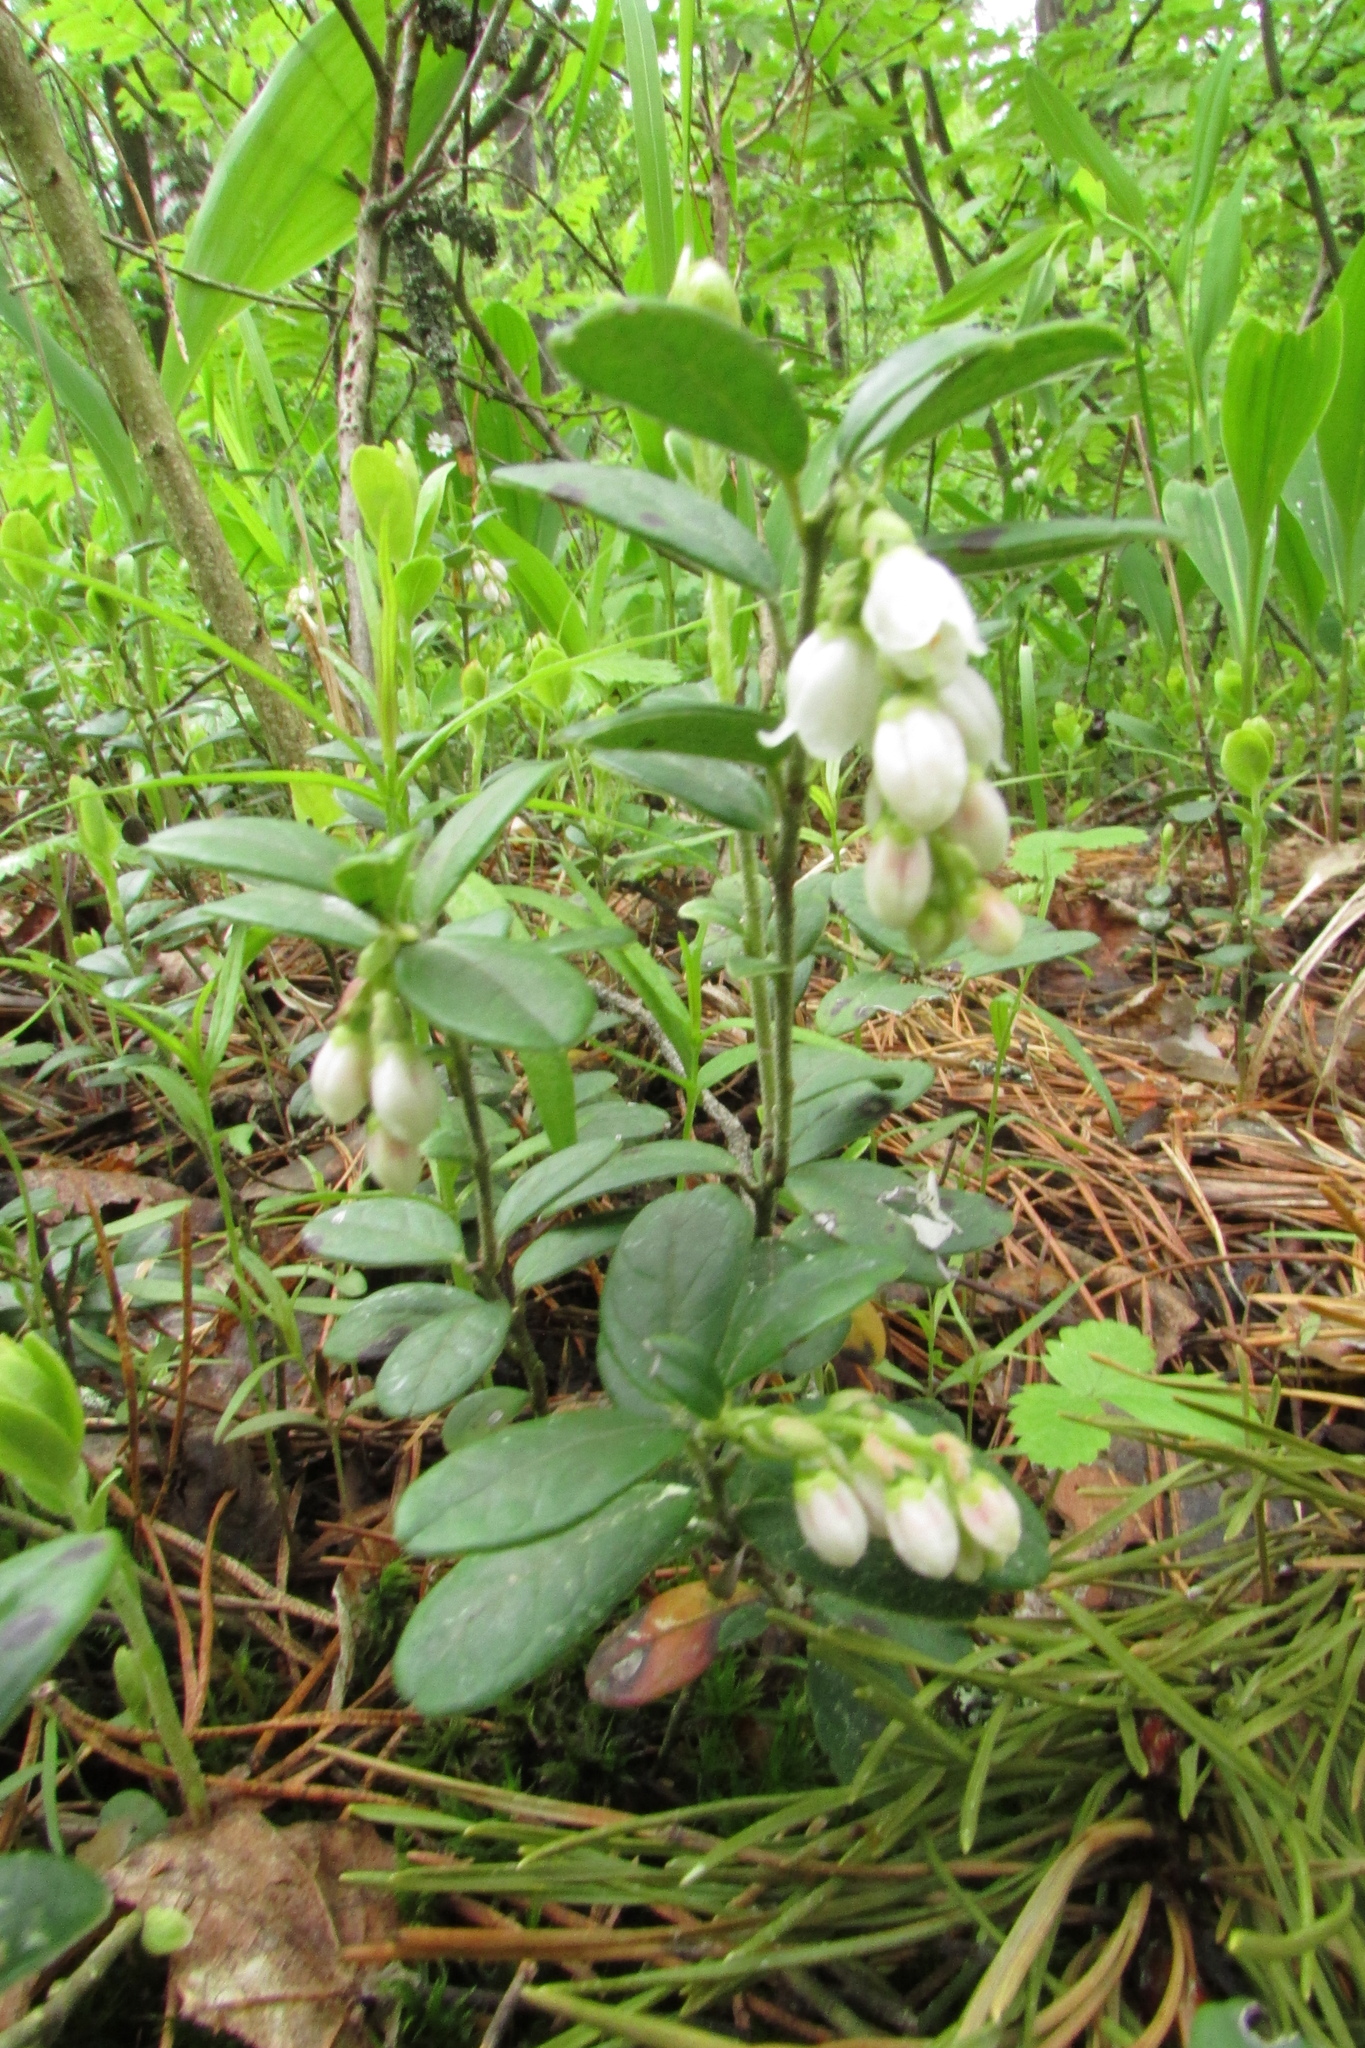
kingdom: Plantae
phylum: Tracheophyta
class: Magnoliopsida
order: Ericales
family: Ericaceae
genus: Vaccinium
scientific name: Vaccinium vitis-idaea
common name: Cowberry
